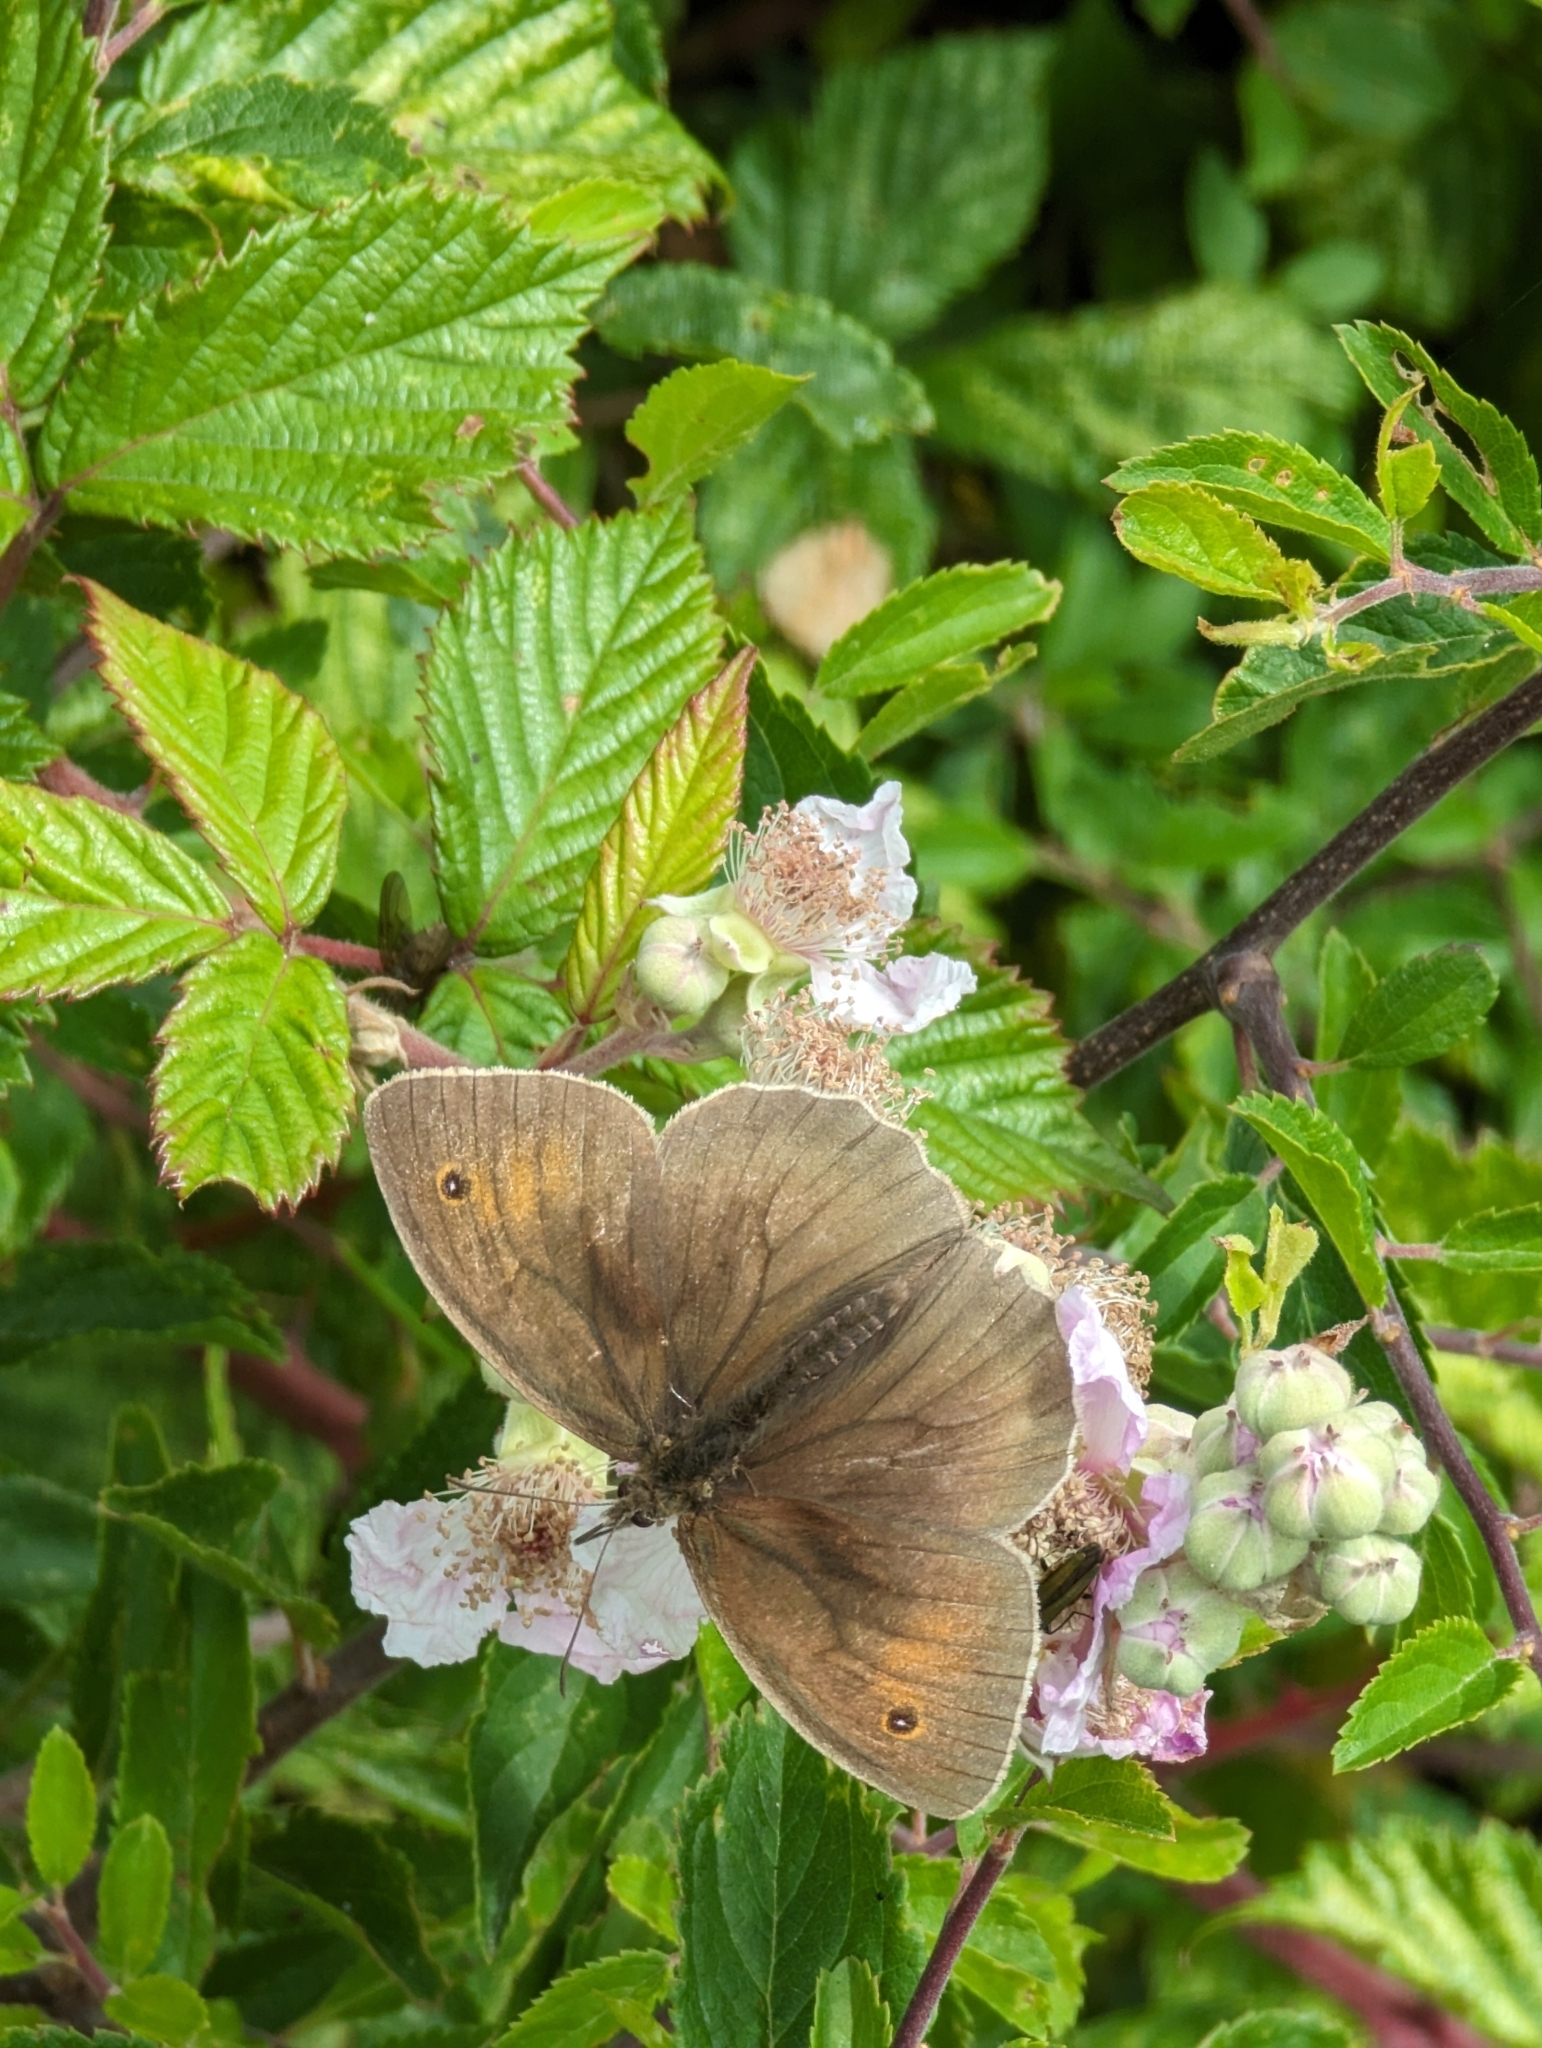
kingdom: Animalia
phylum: Arthropoda
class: Insecta
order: Lepidoptera
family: Nymphalidae
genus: Maniola
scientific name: Maniola jurtina
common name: Meadow brown
